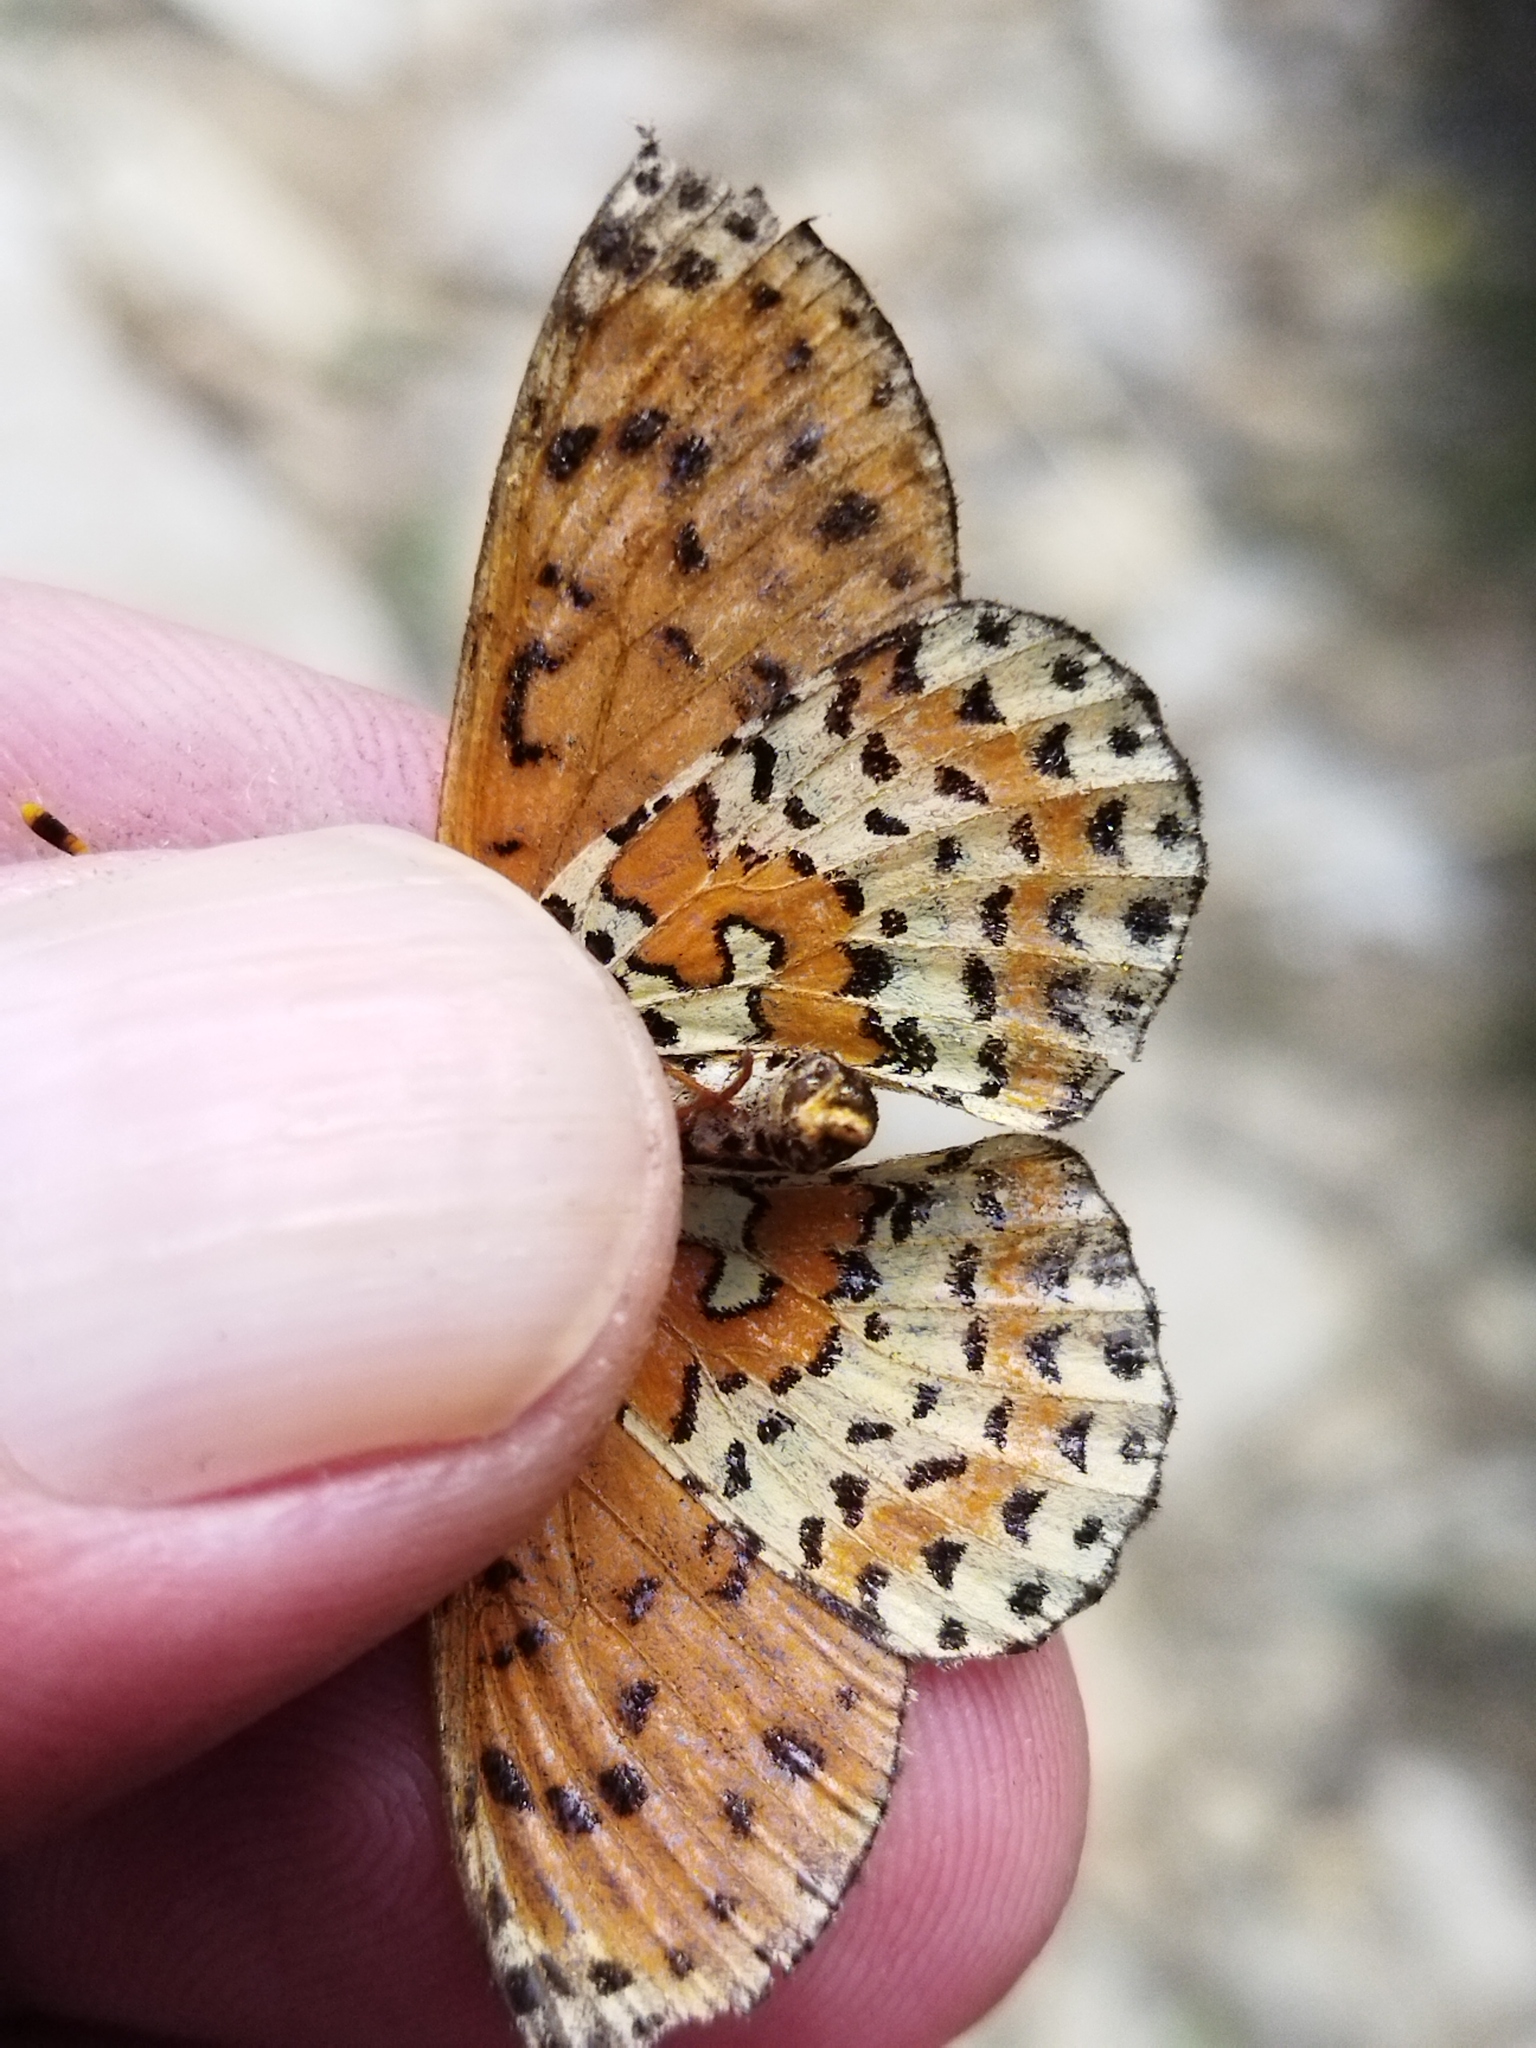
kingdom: Animalia
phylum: Arthropoda
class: Insecta
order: Lepidoptera
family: Nymphalidae
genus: Melitaea
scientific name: Melitaea didyma
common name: Spotted fritillary
